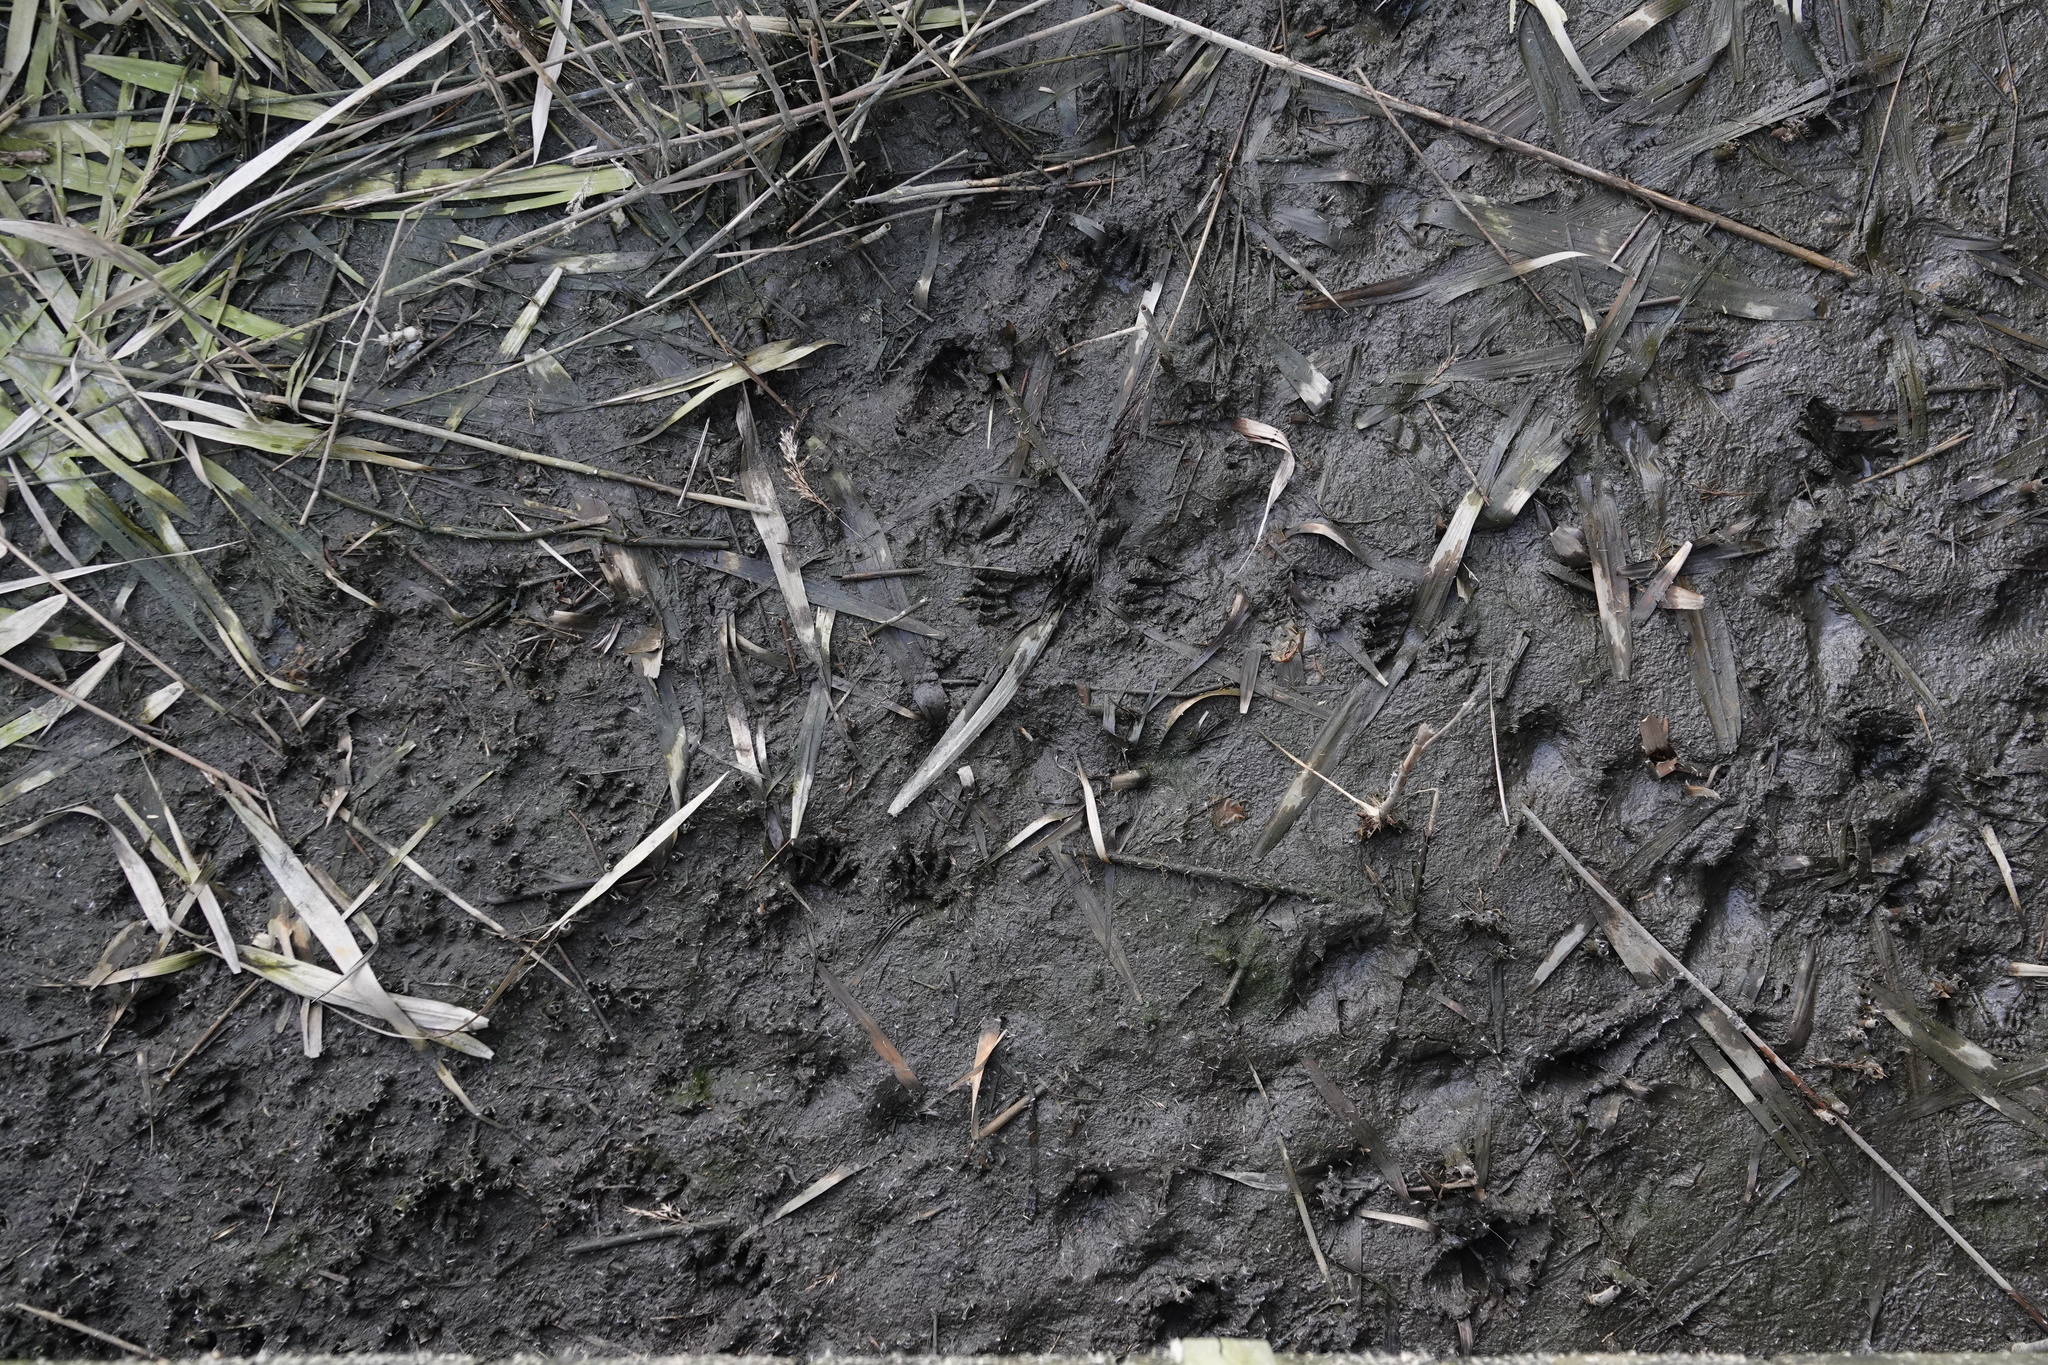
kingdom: Animalia
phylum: Chordata
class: Mammalia
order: Carnivora
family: Procyonidae
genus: Procyon
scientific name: Procyon lotor
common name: Raccoon
